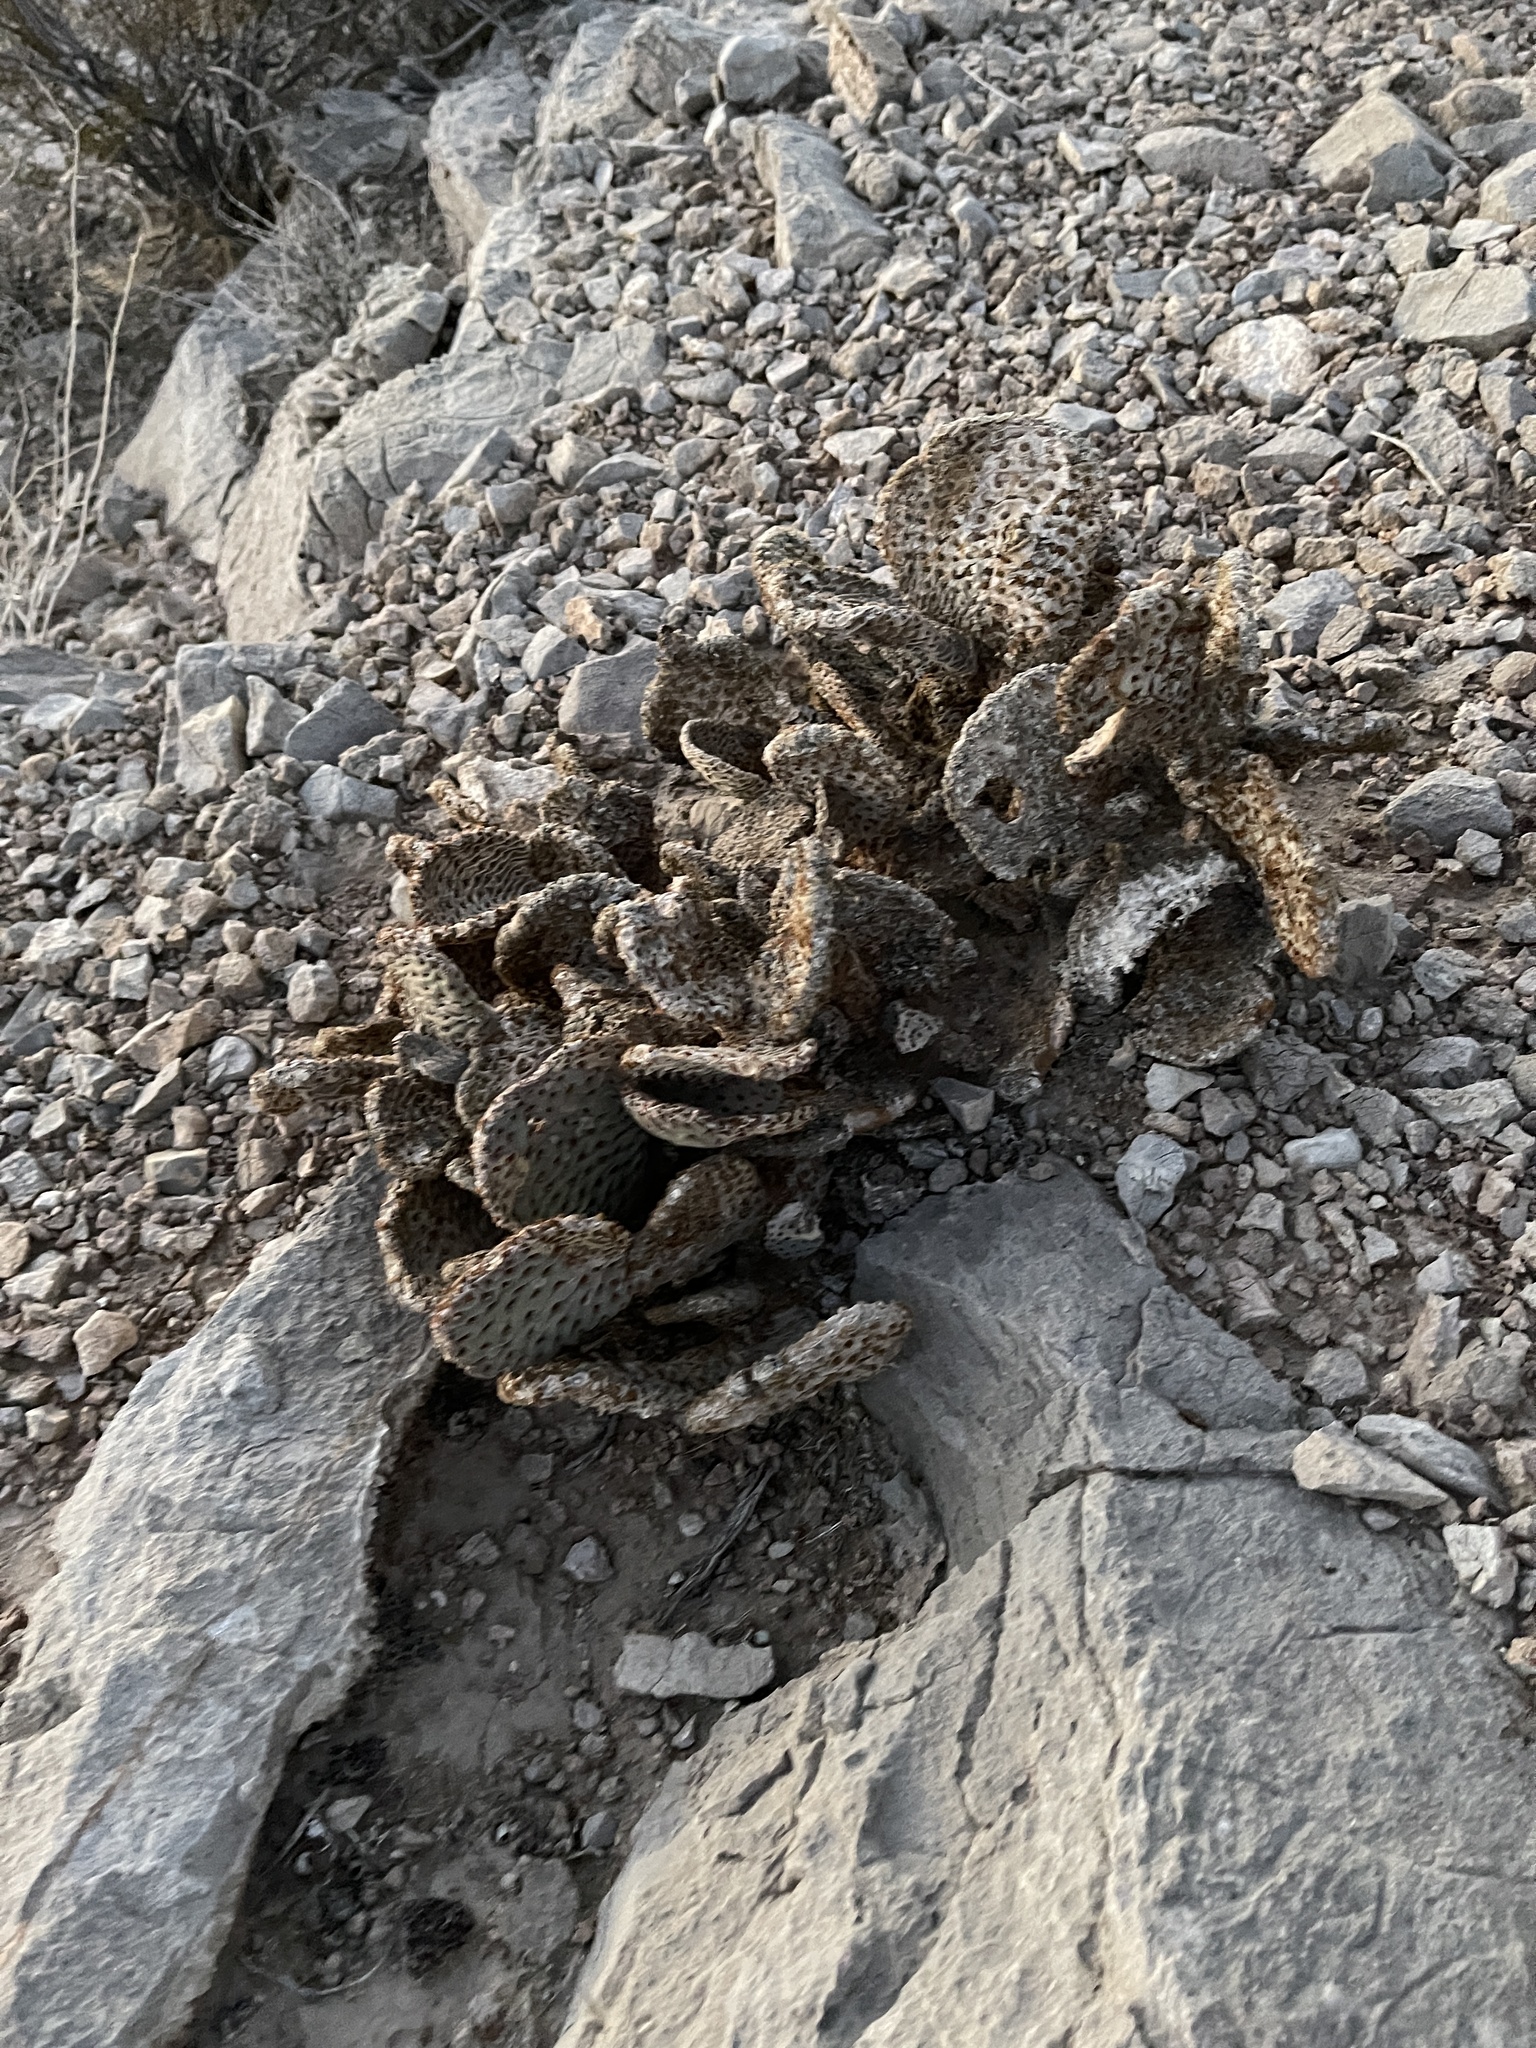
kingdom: Plantae
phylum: Tracheophyta
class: Magnoliopsida
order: Caryophyllales
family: Cactaceae
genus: Opuntia
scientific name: Opuntia basilaris
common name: Beavertail prickly-pear
